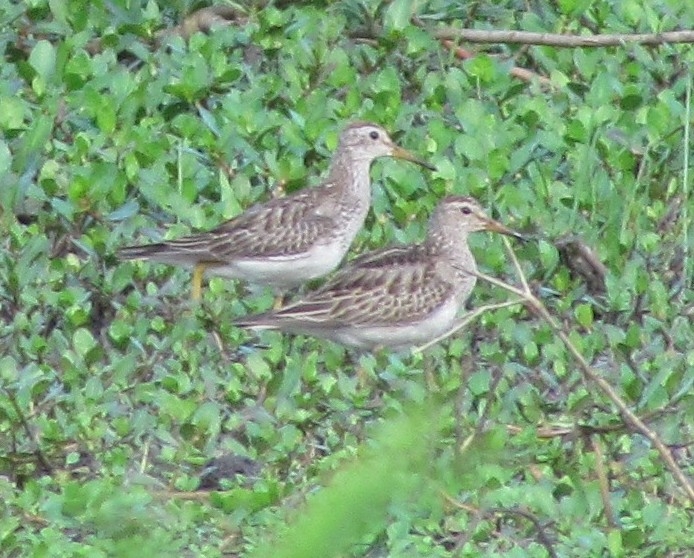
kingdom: Animalia
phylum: Chordata
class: Aves
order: Charadriiformes
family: Scolopacidae
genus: Calidris
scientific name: Calidris melanotos
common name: Pectoral sandpiper
